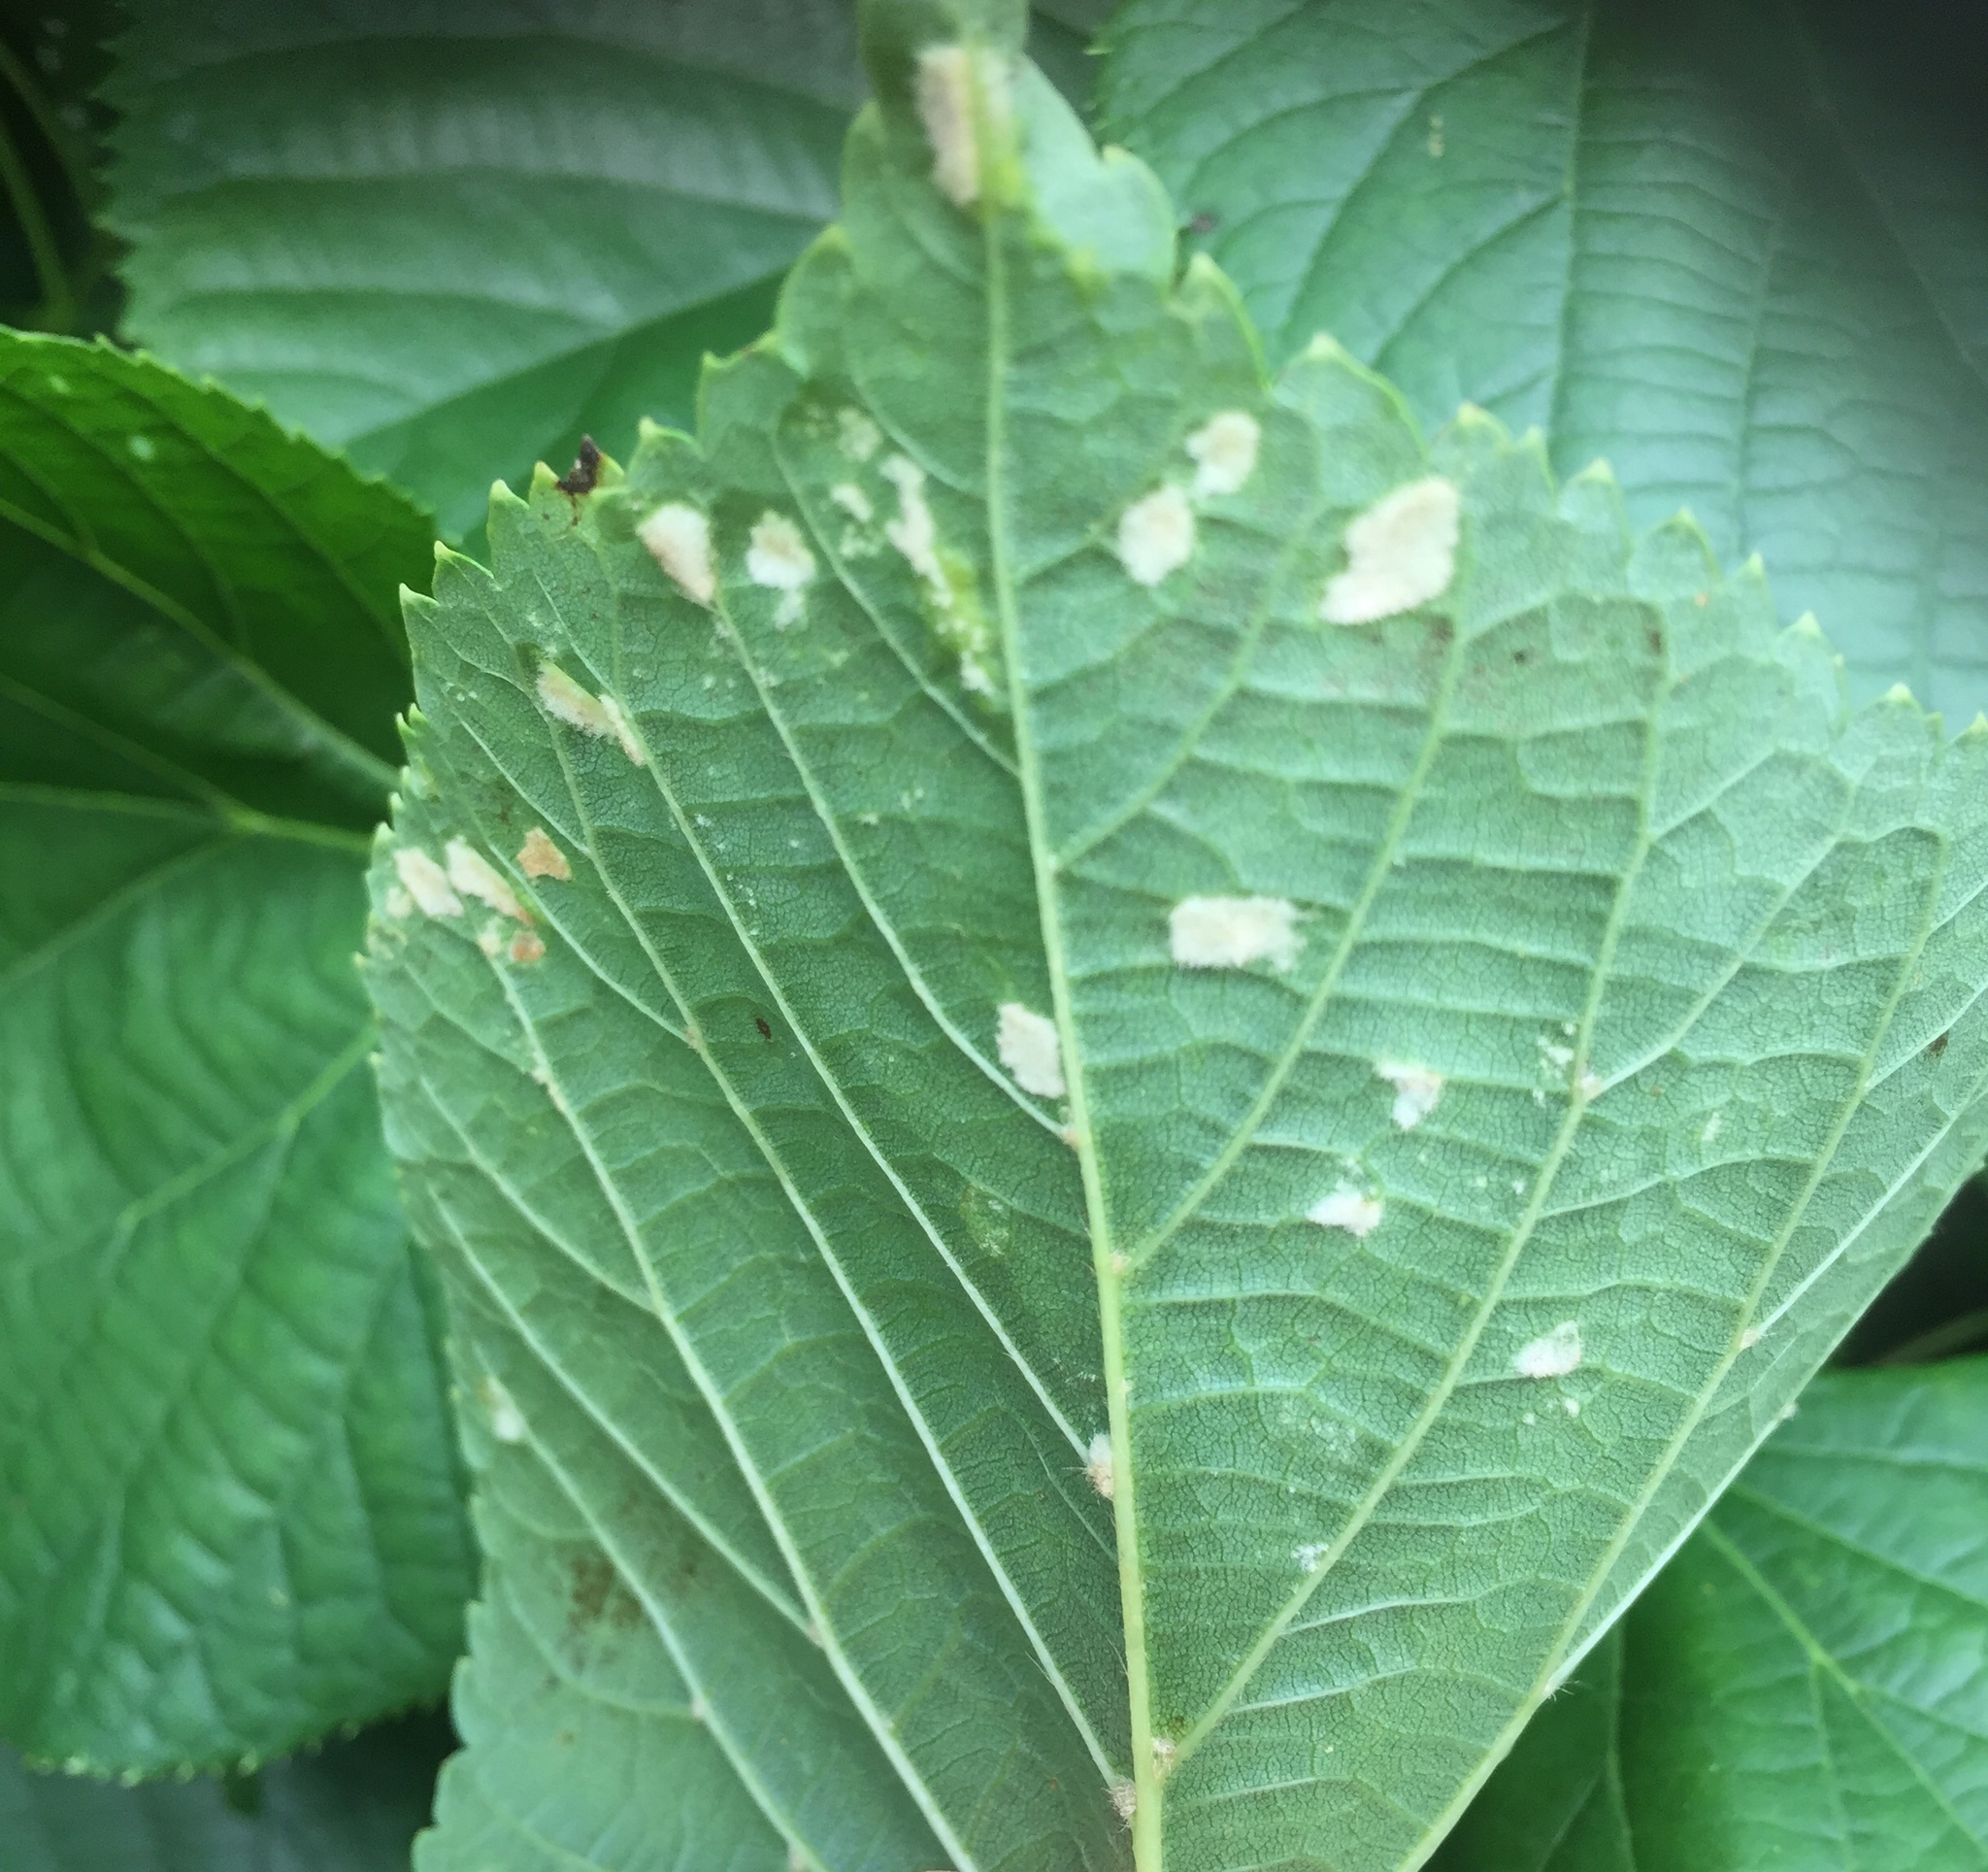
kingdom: Animalia
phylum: Arthropoda
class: Arachnida
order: Trombidiformes
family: Eriophyidae
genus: Eriophyes
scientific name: Eriophyes leiosoma
